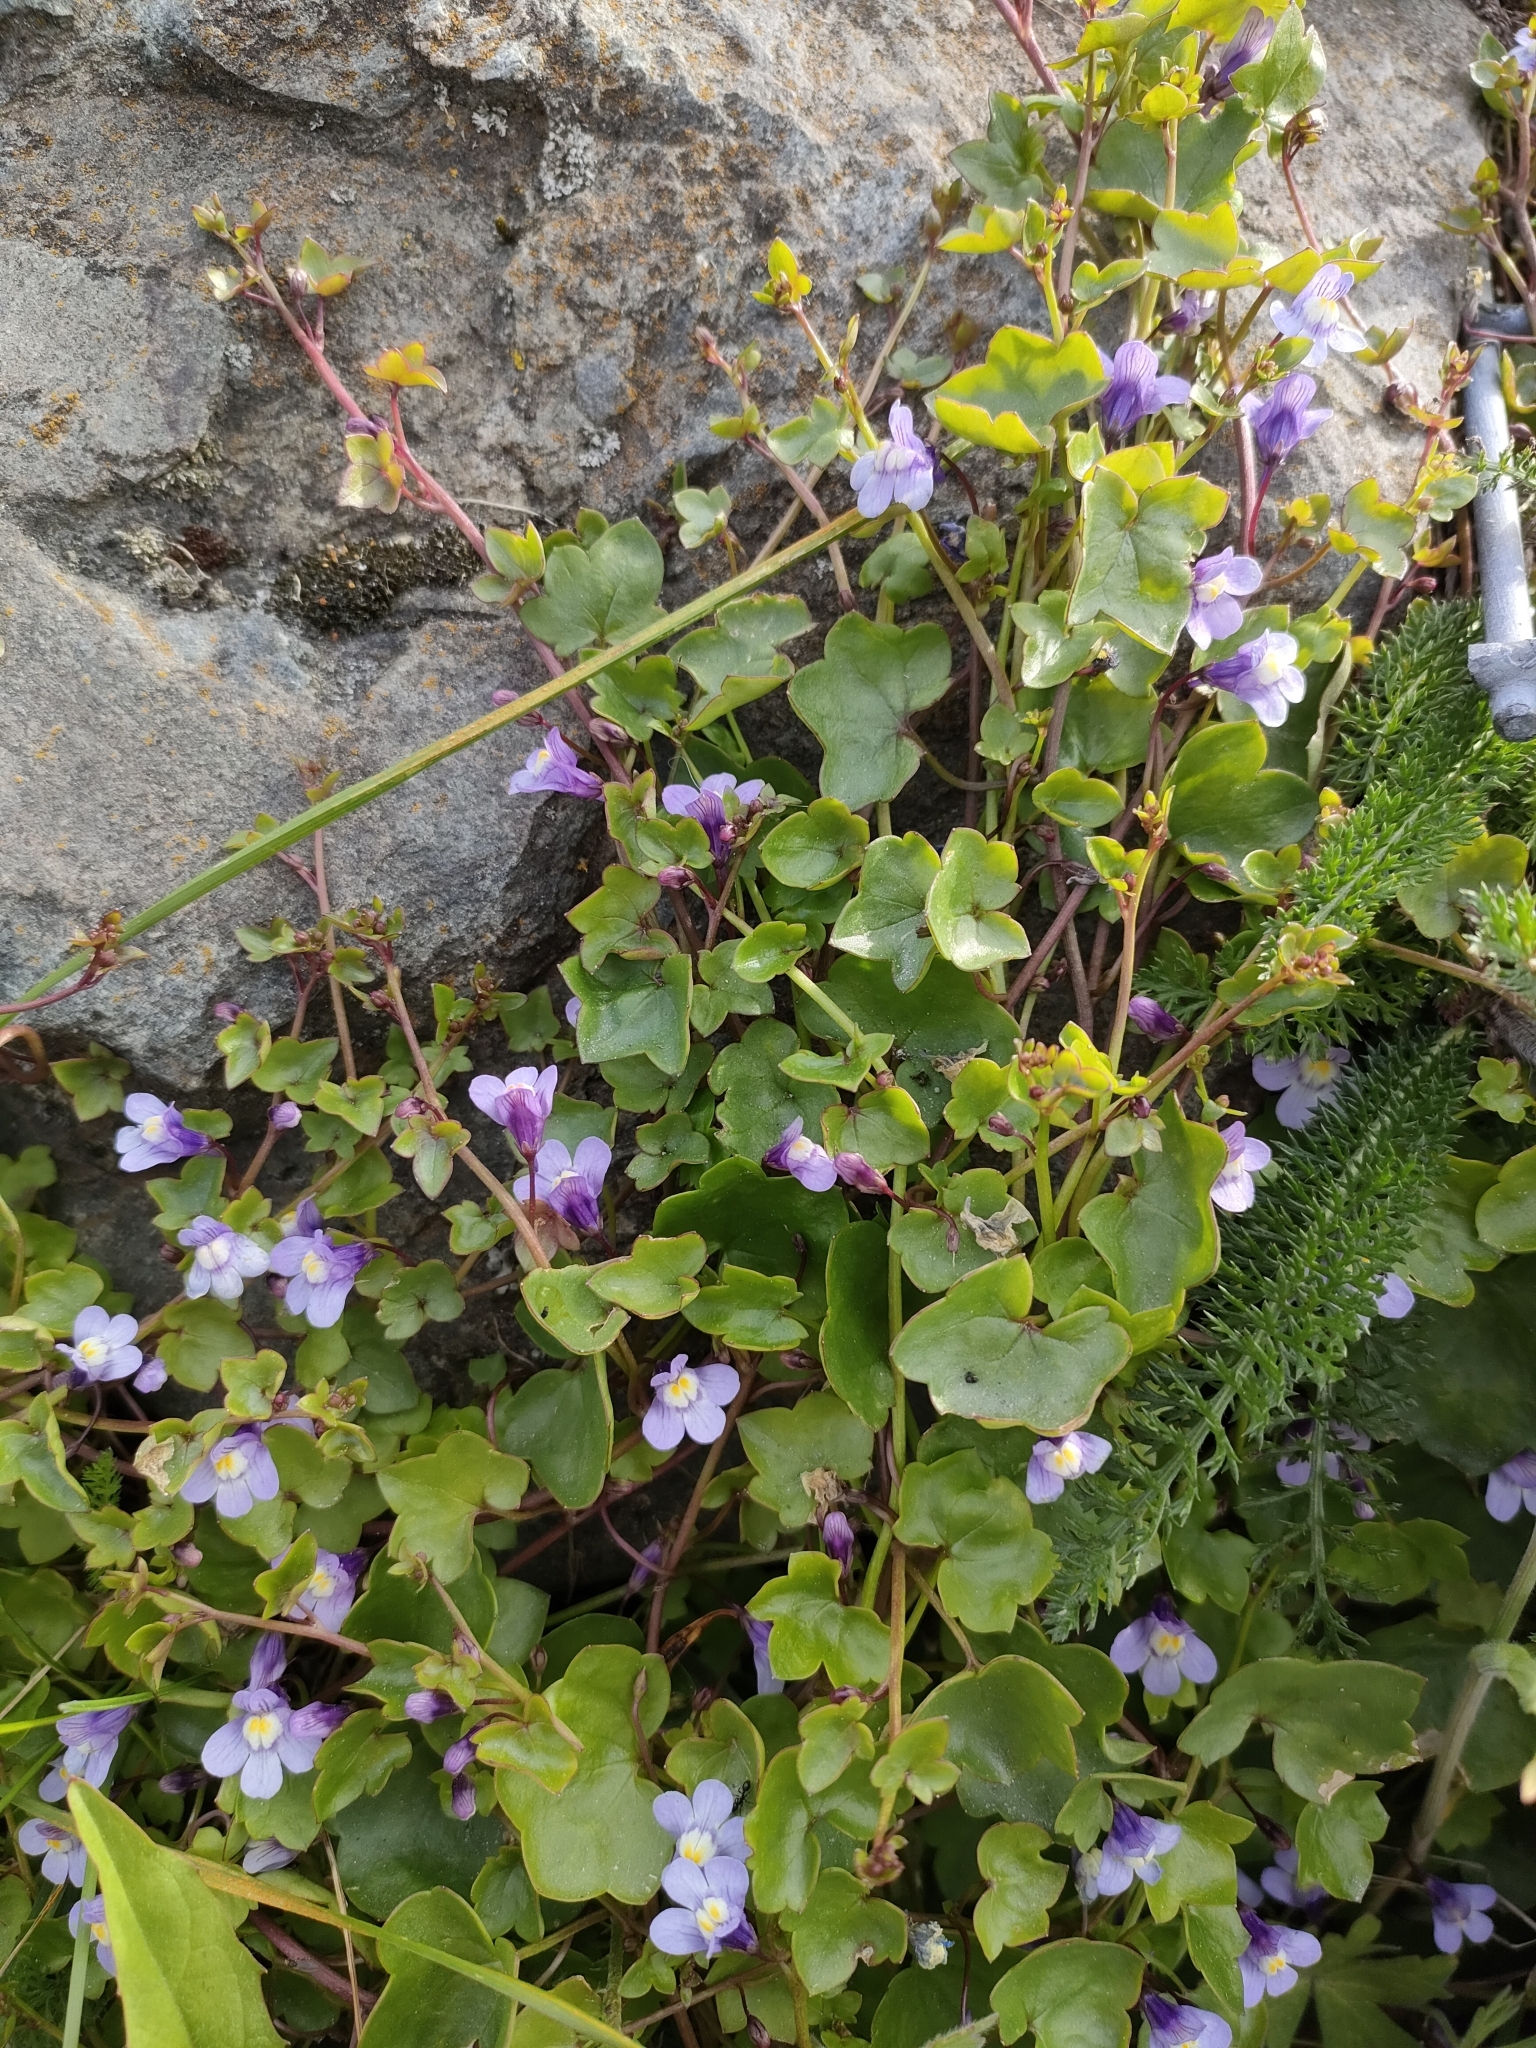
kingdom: Plantae
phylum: Tracheophyta
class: Magnoliopsida
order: Lamiales
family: Plantaginaceae
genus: Cymbalaria
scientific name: Cymbalaria muralis
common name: Ivy-leaved toadflax
